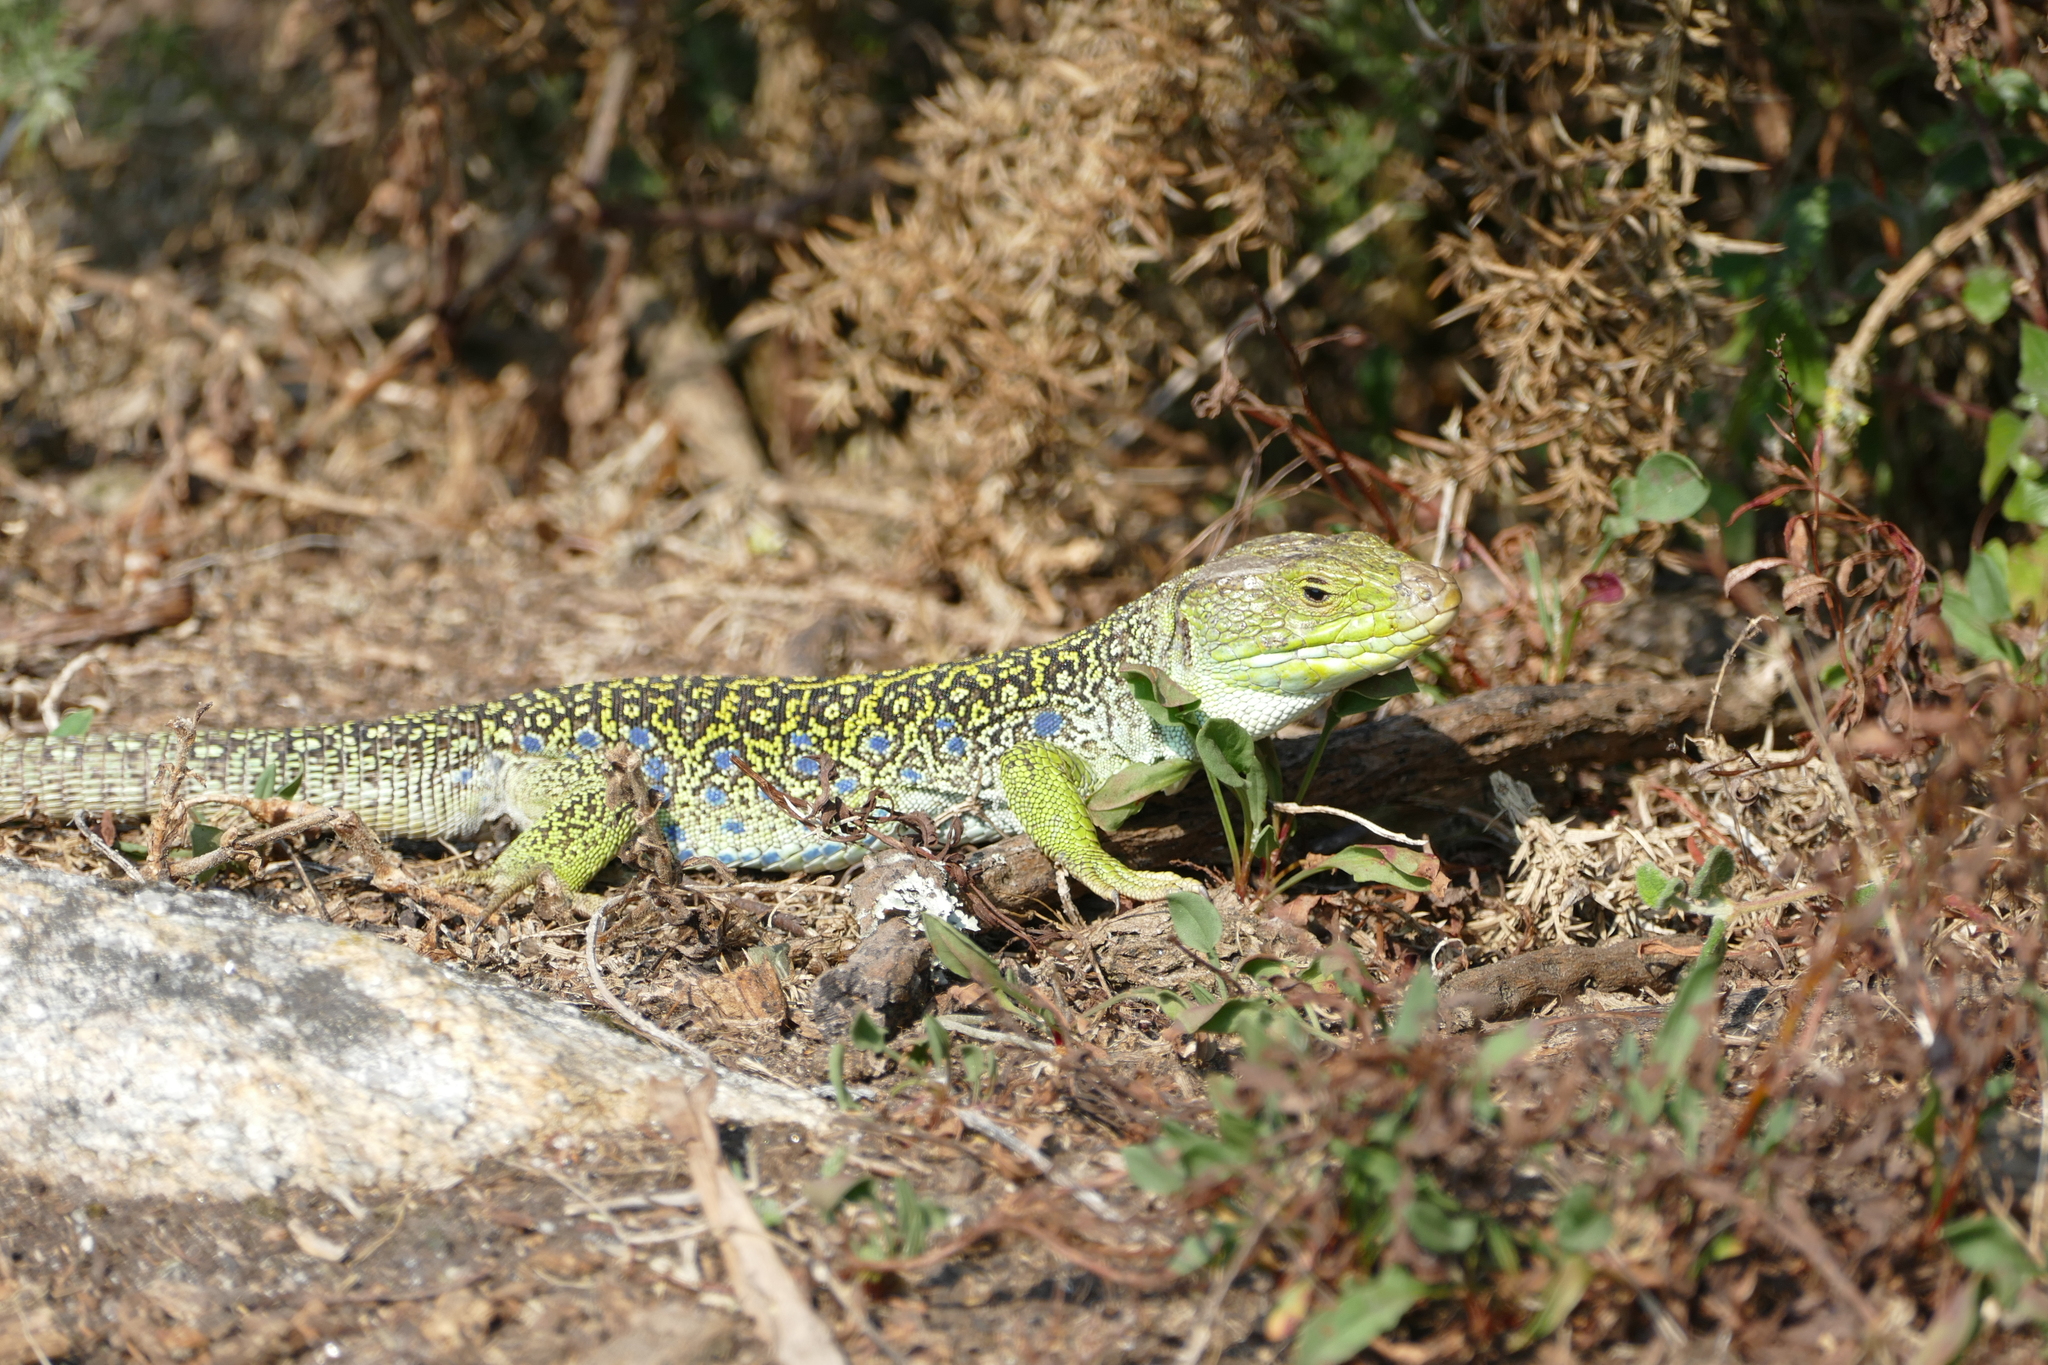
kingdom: Animalia
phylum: Chordata
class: Squamata
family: Lacertidae
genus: Timon
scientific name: Timon lepidus
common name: Ocellated lizard
